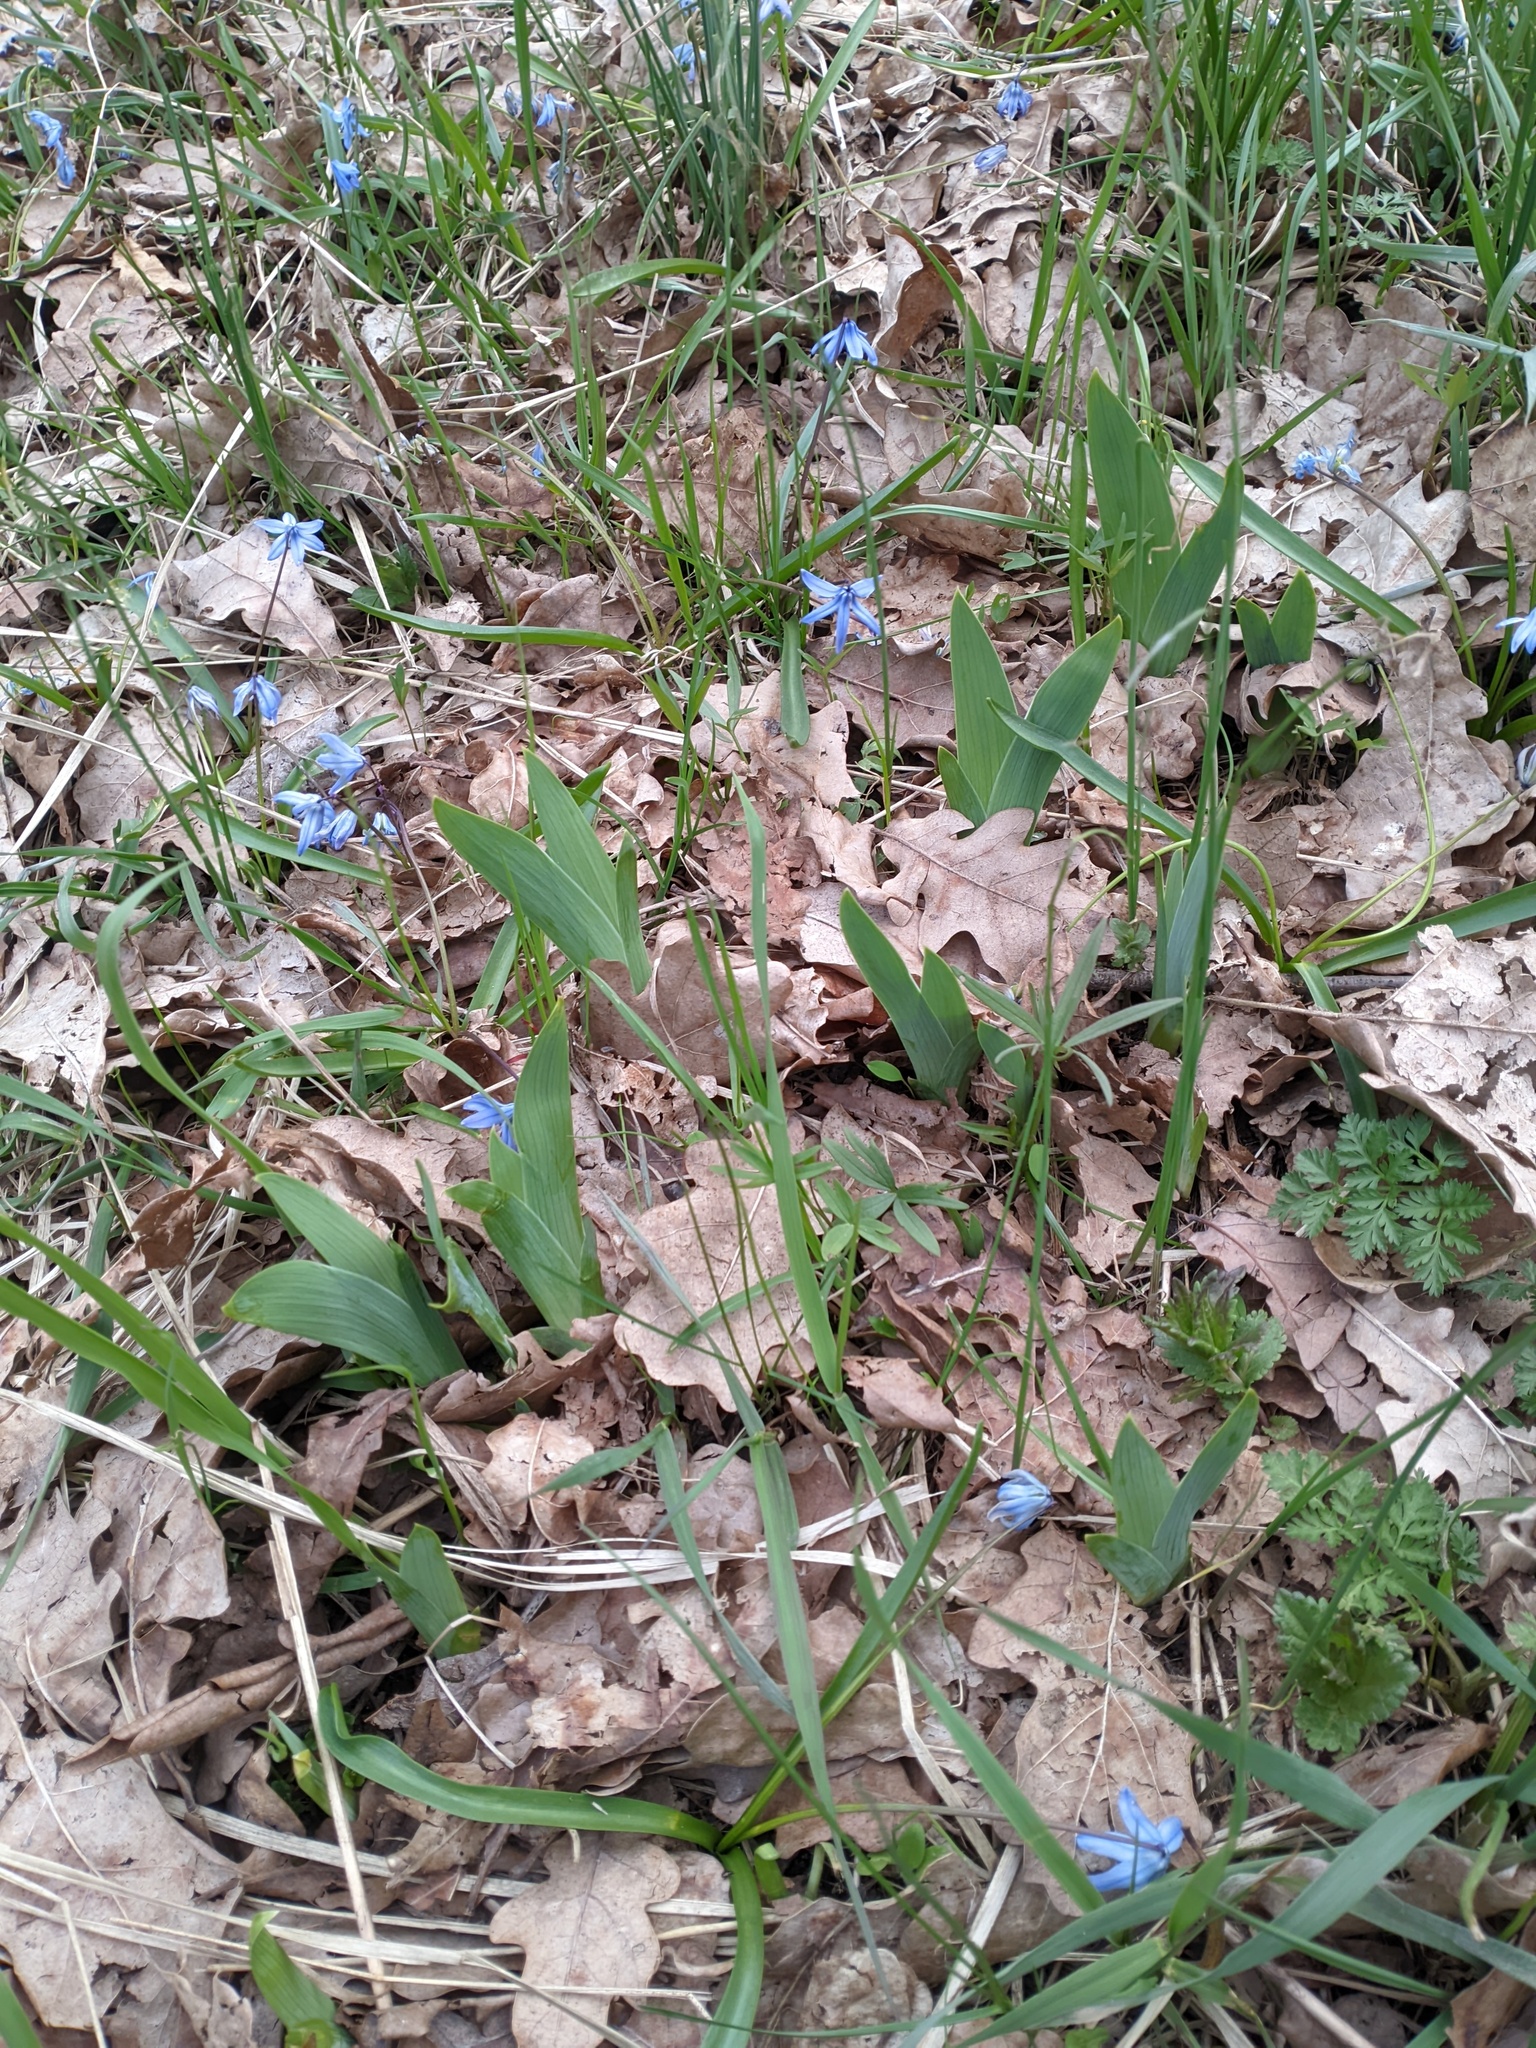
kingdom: Plantae
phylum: Tracheophyta
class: Liliopsida
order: Asparagales
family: Iridaceae
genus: Iris
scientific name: Iris aphylla
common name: Stool iris
